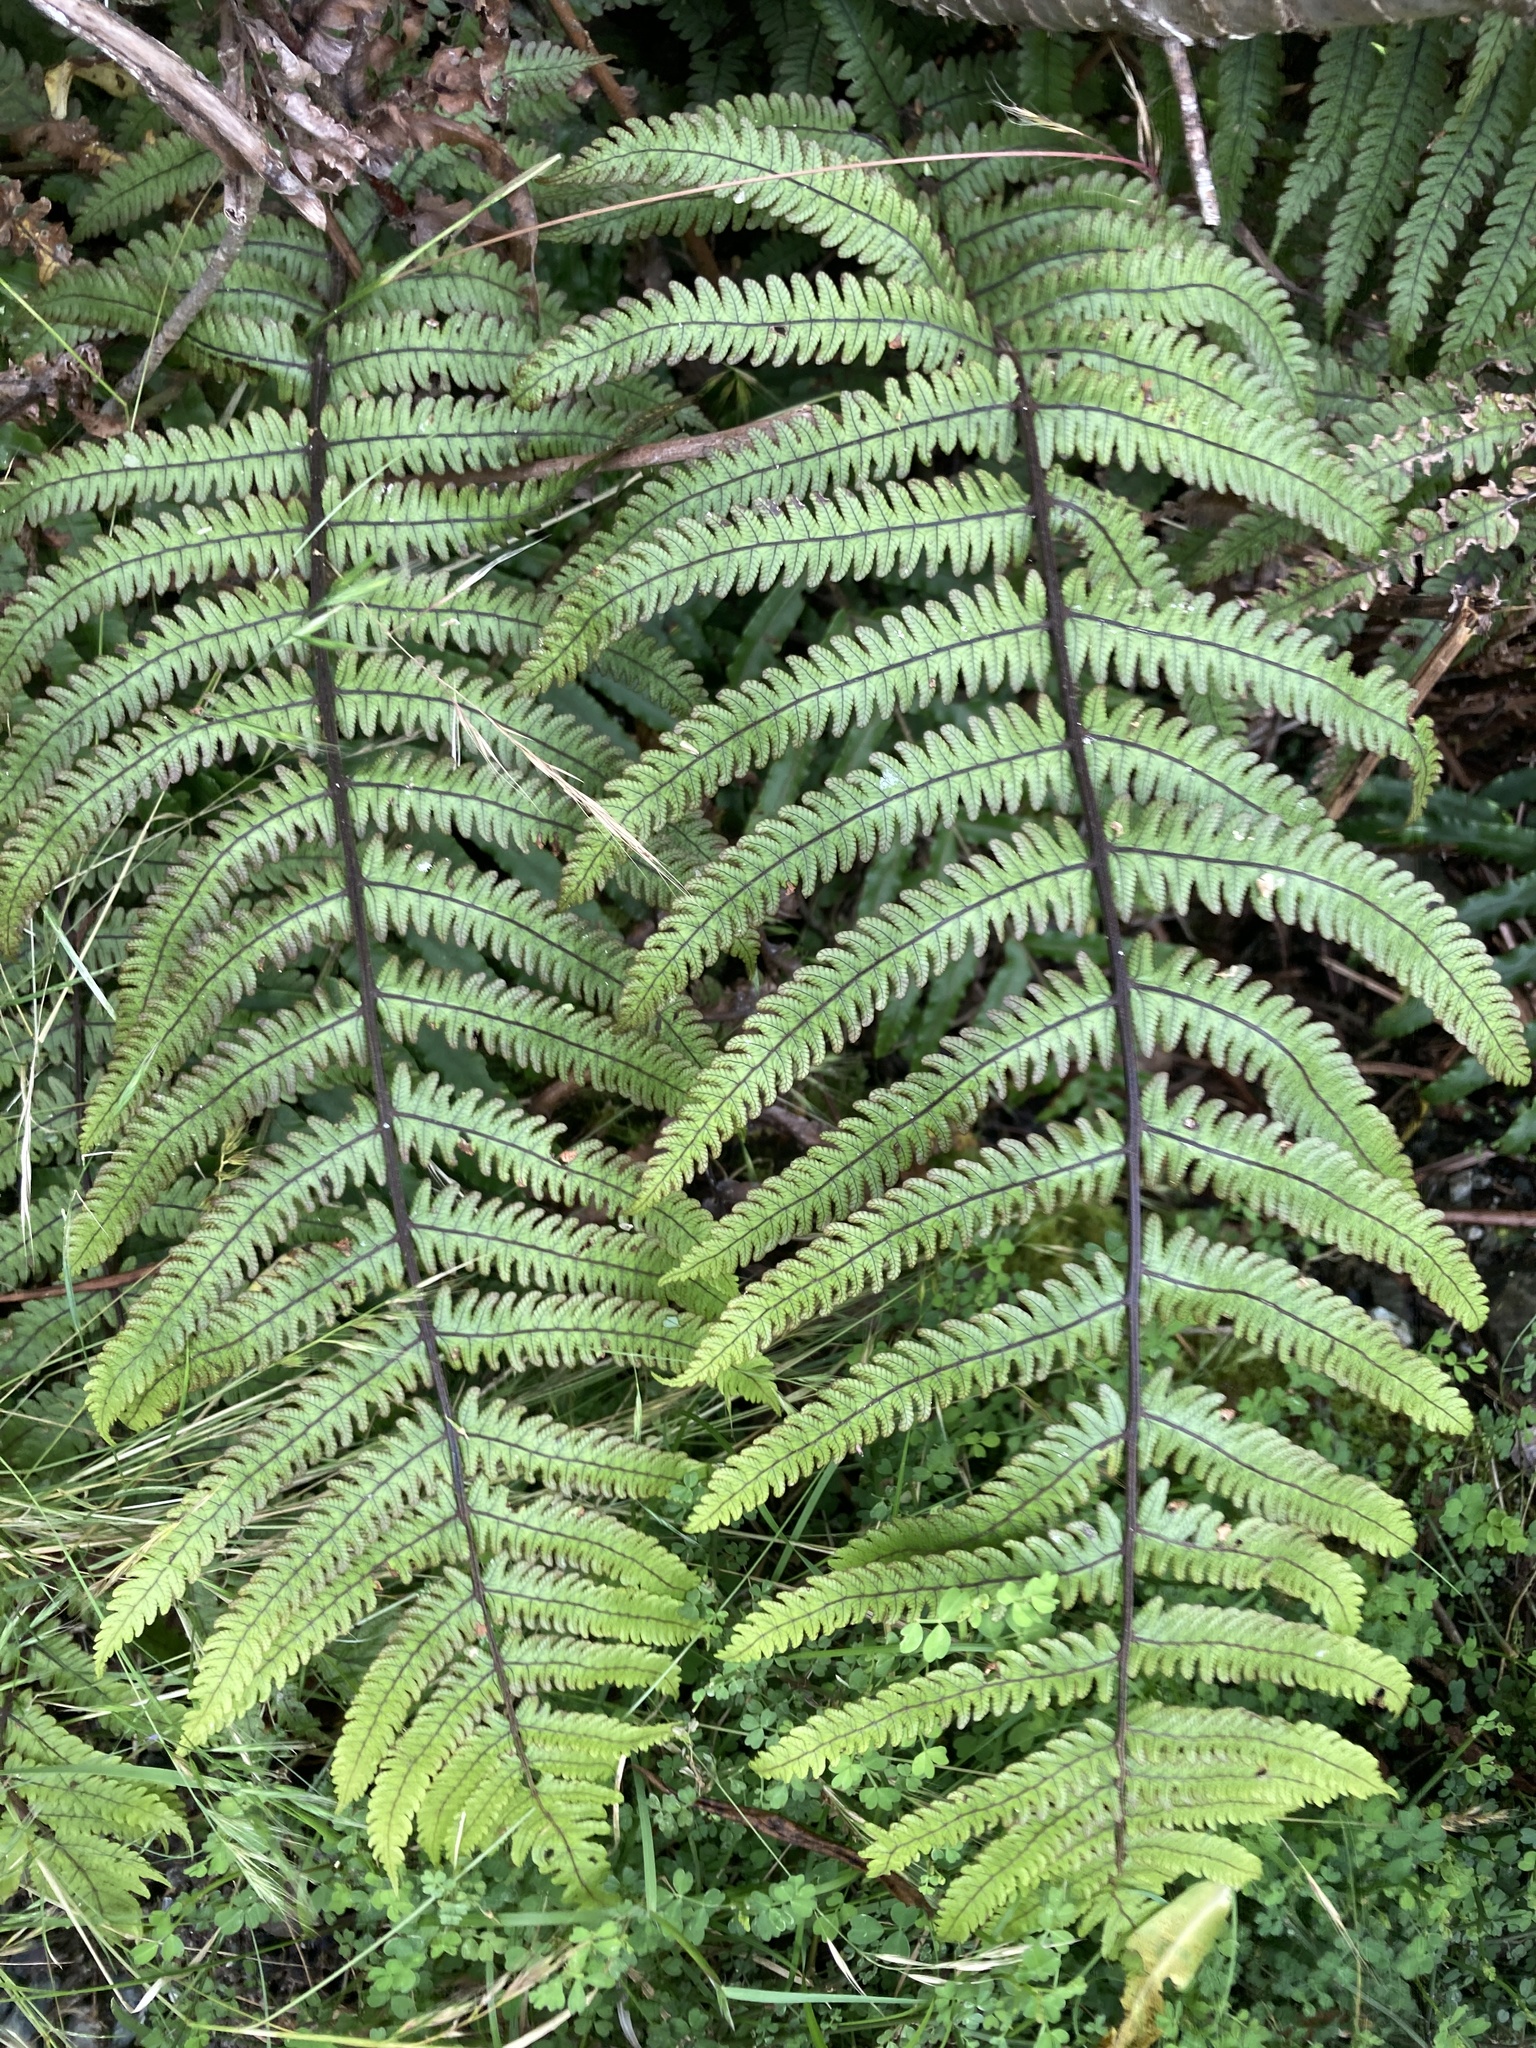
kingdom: Plantae
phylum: Tracheophyta
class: Polypodiopsida
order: Polypodiales
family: Thelypteridaceae
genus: Pakau
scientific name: Pakau pennigera
